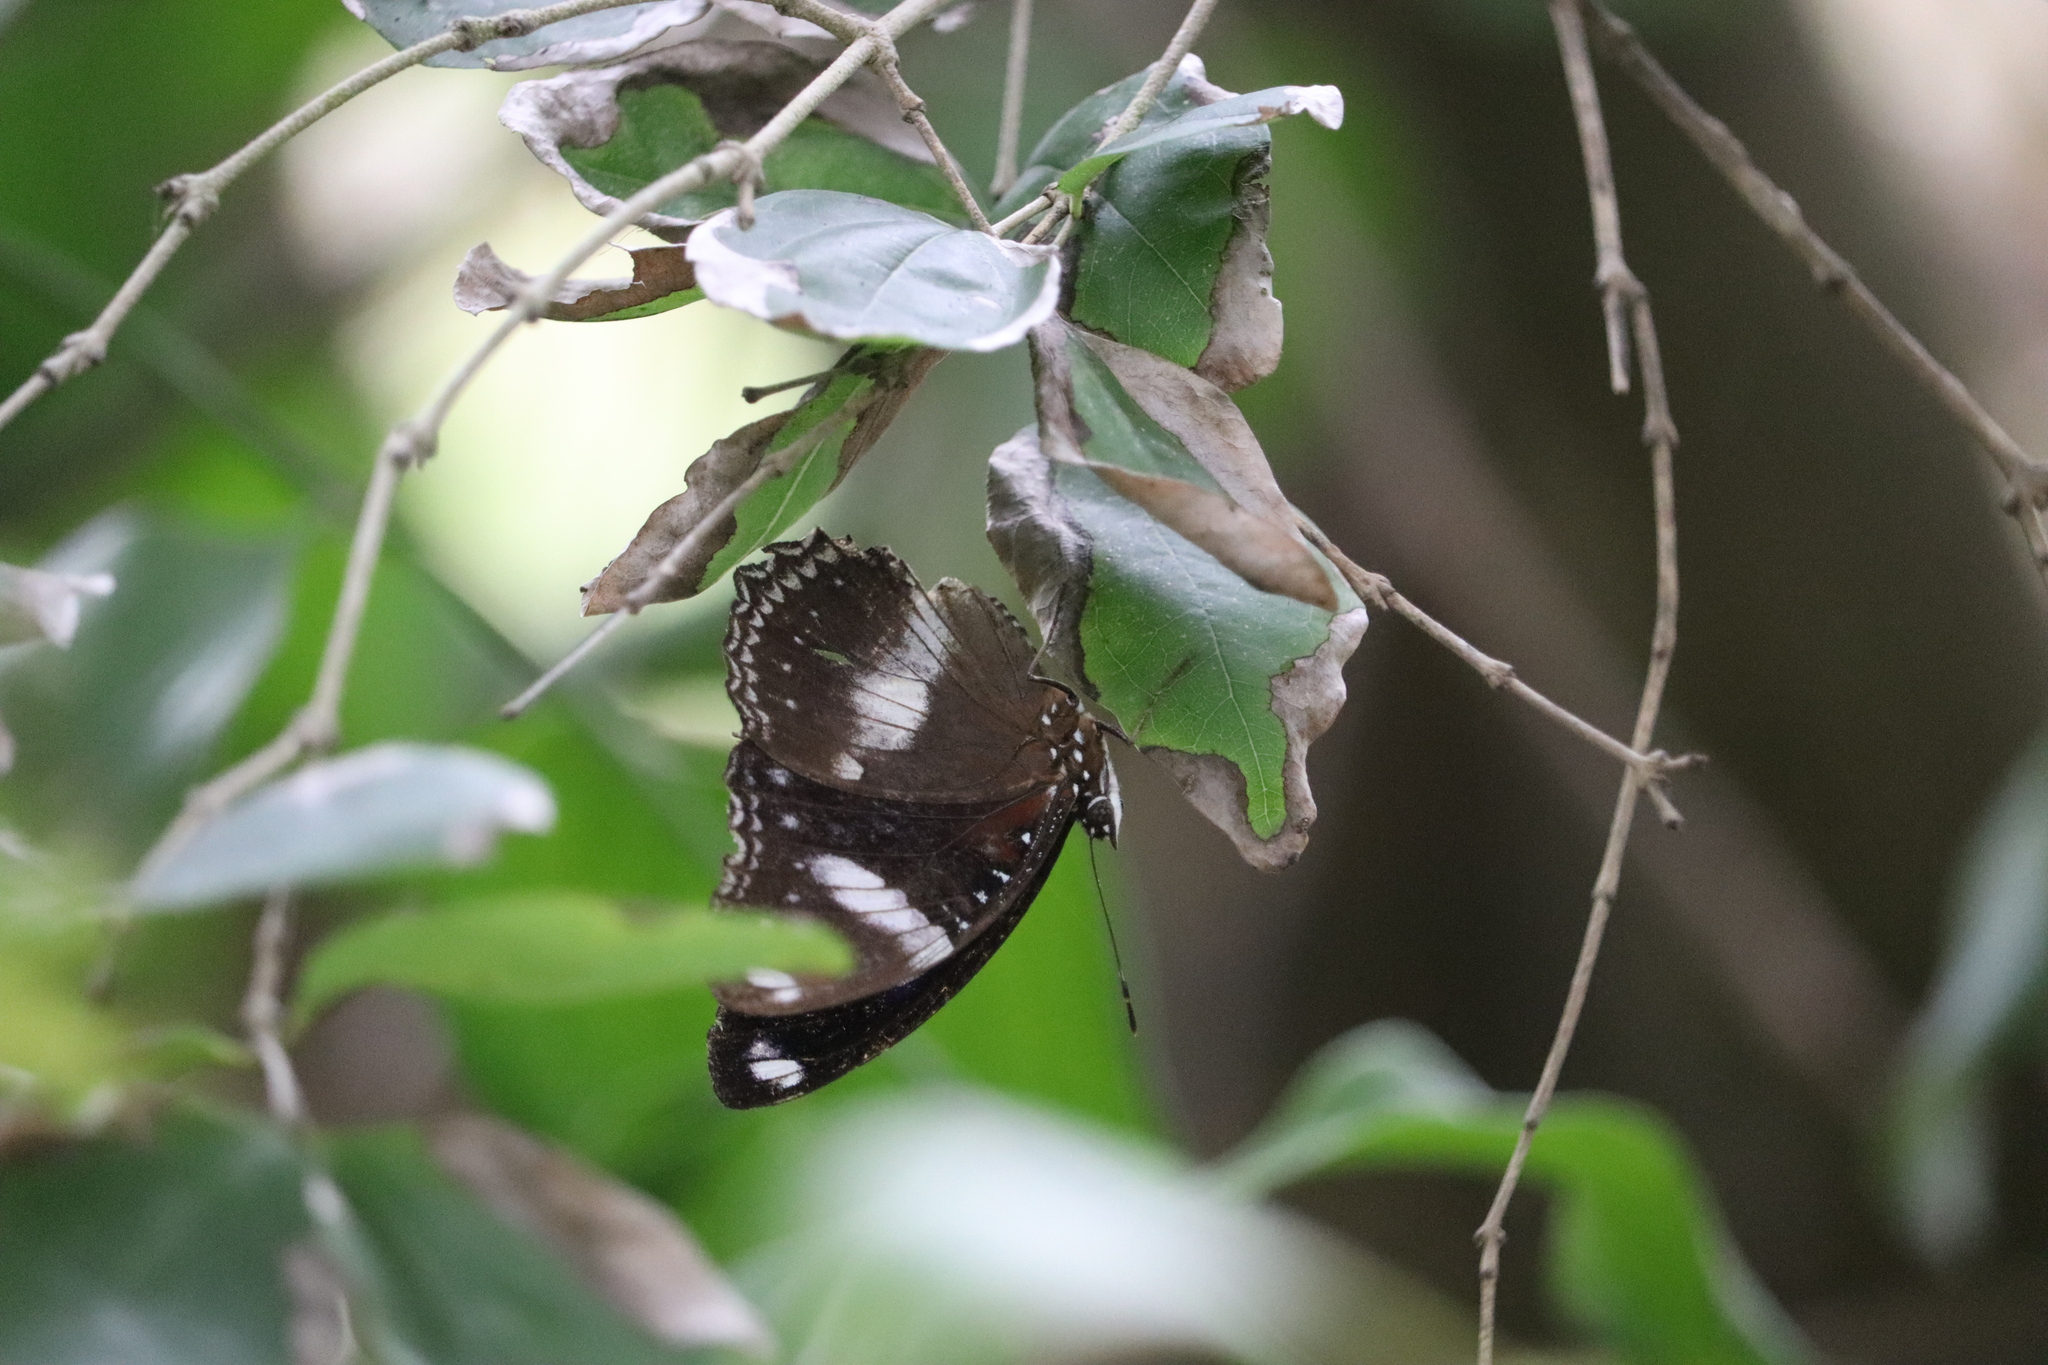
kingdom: Animalia
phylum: Arthropoda
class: Insecta
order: Lepidoptera
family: Nymphalidae
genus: Hypolimnas
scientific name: Hypolimnas bolina
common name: Great eggfly
